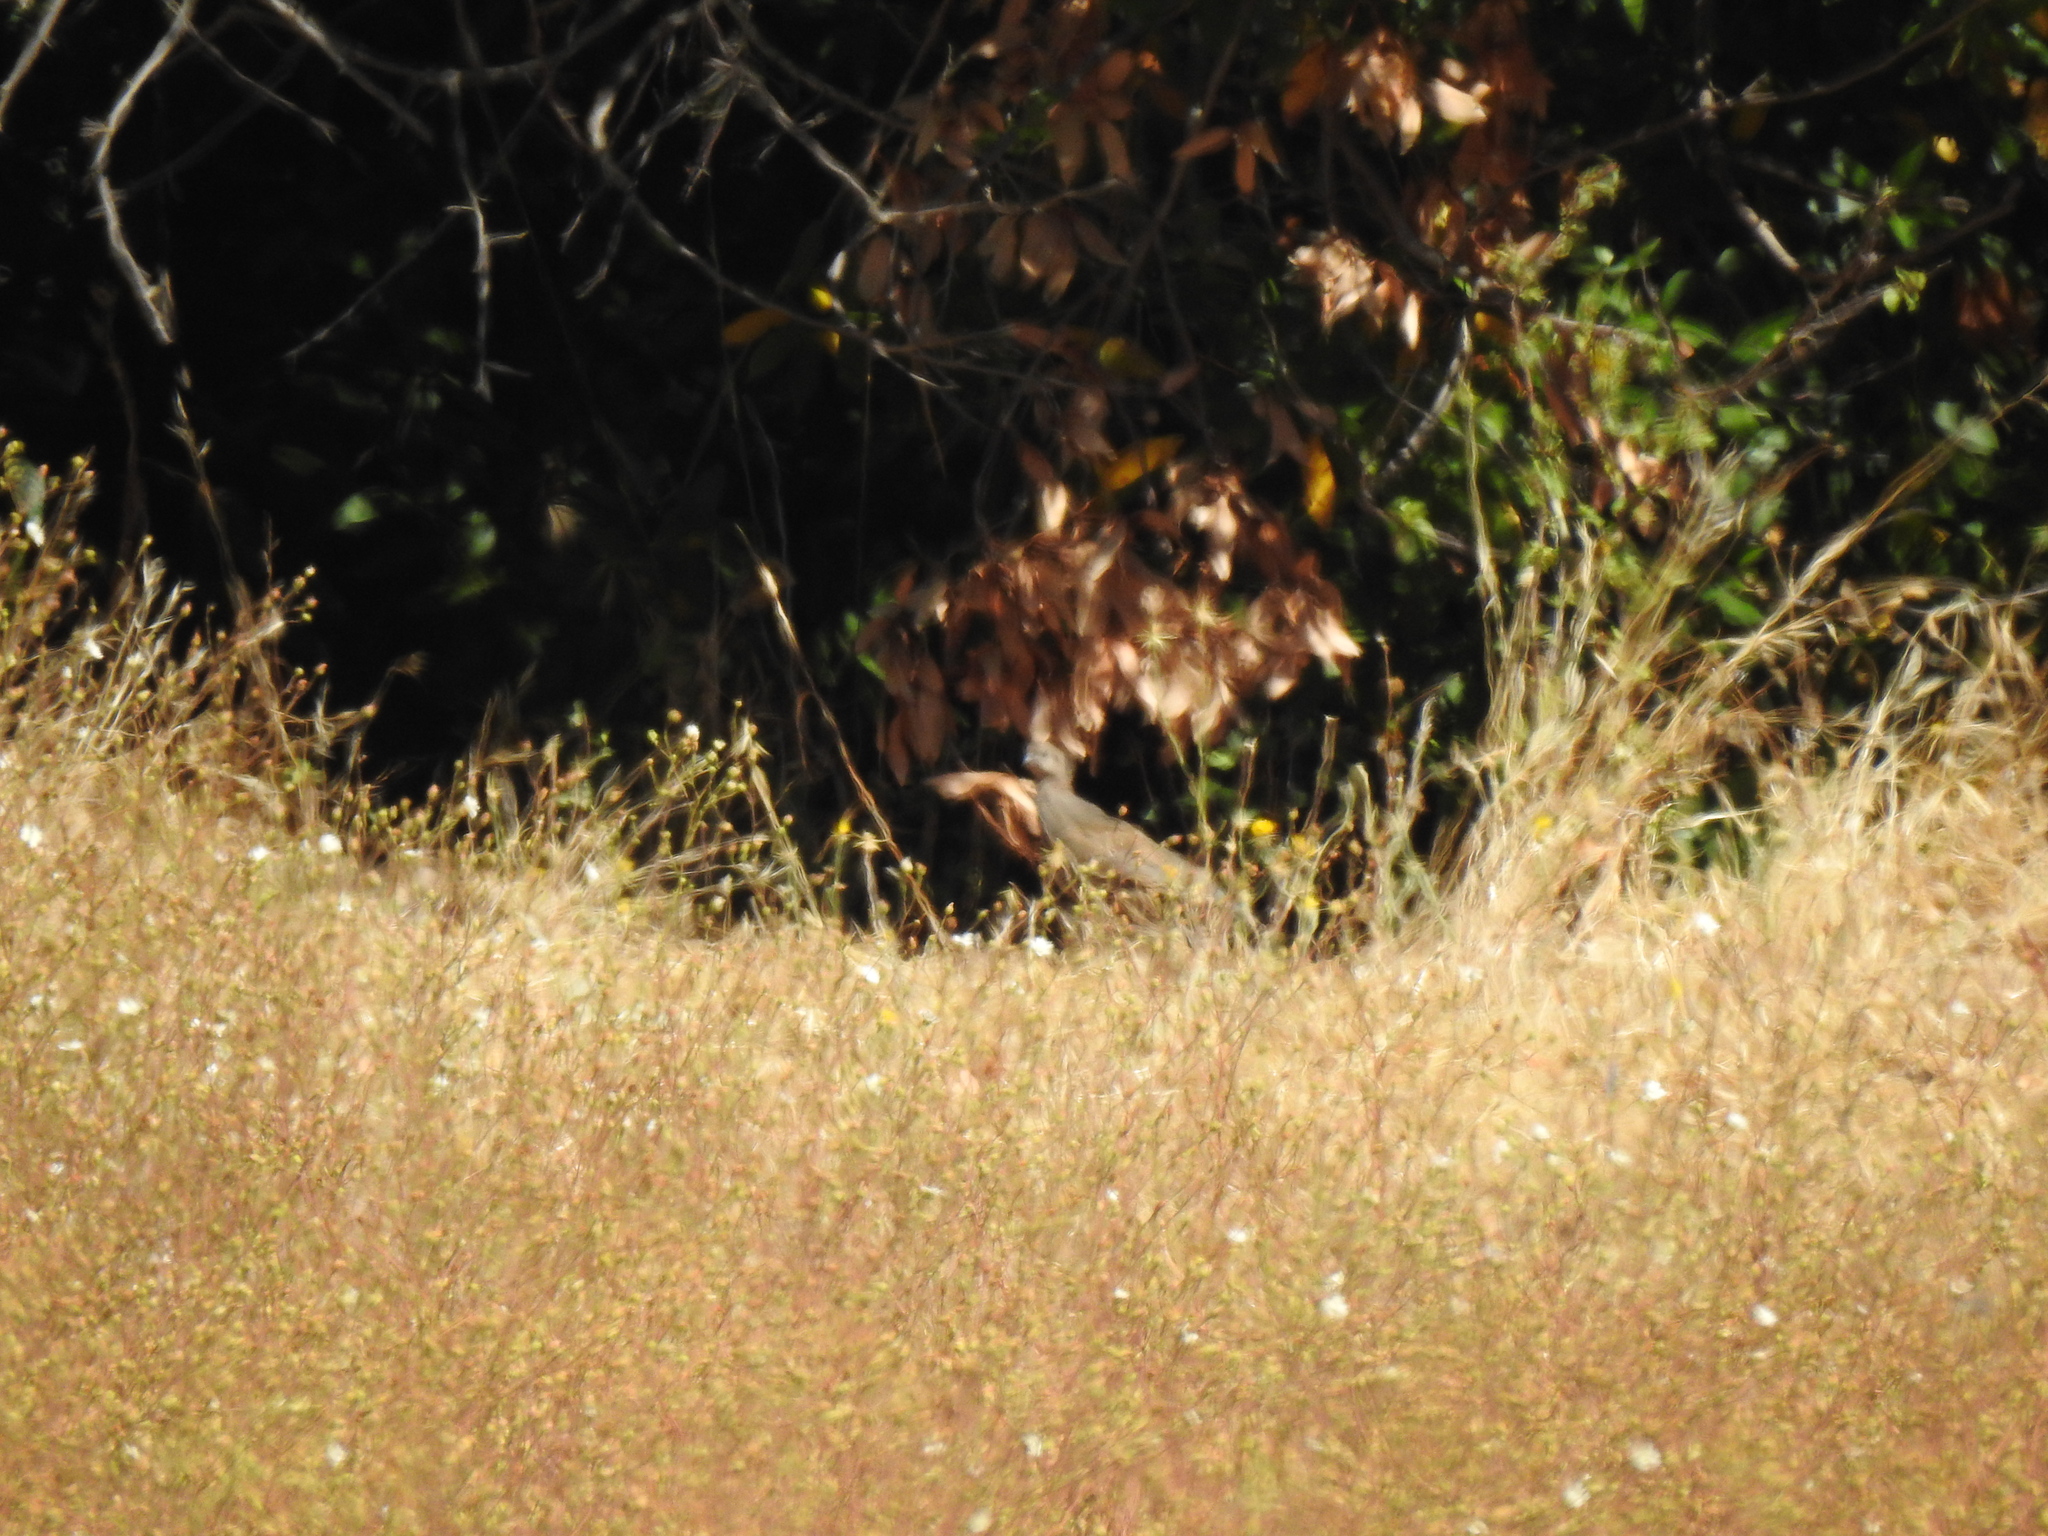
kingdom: Animalia
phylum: Chordata
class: Aves
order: Galliformes
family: Odontophoridae
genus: Callipepla
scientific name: Callipepla californica
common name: California quail
